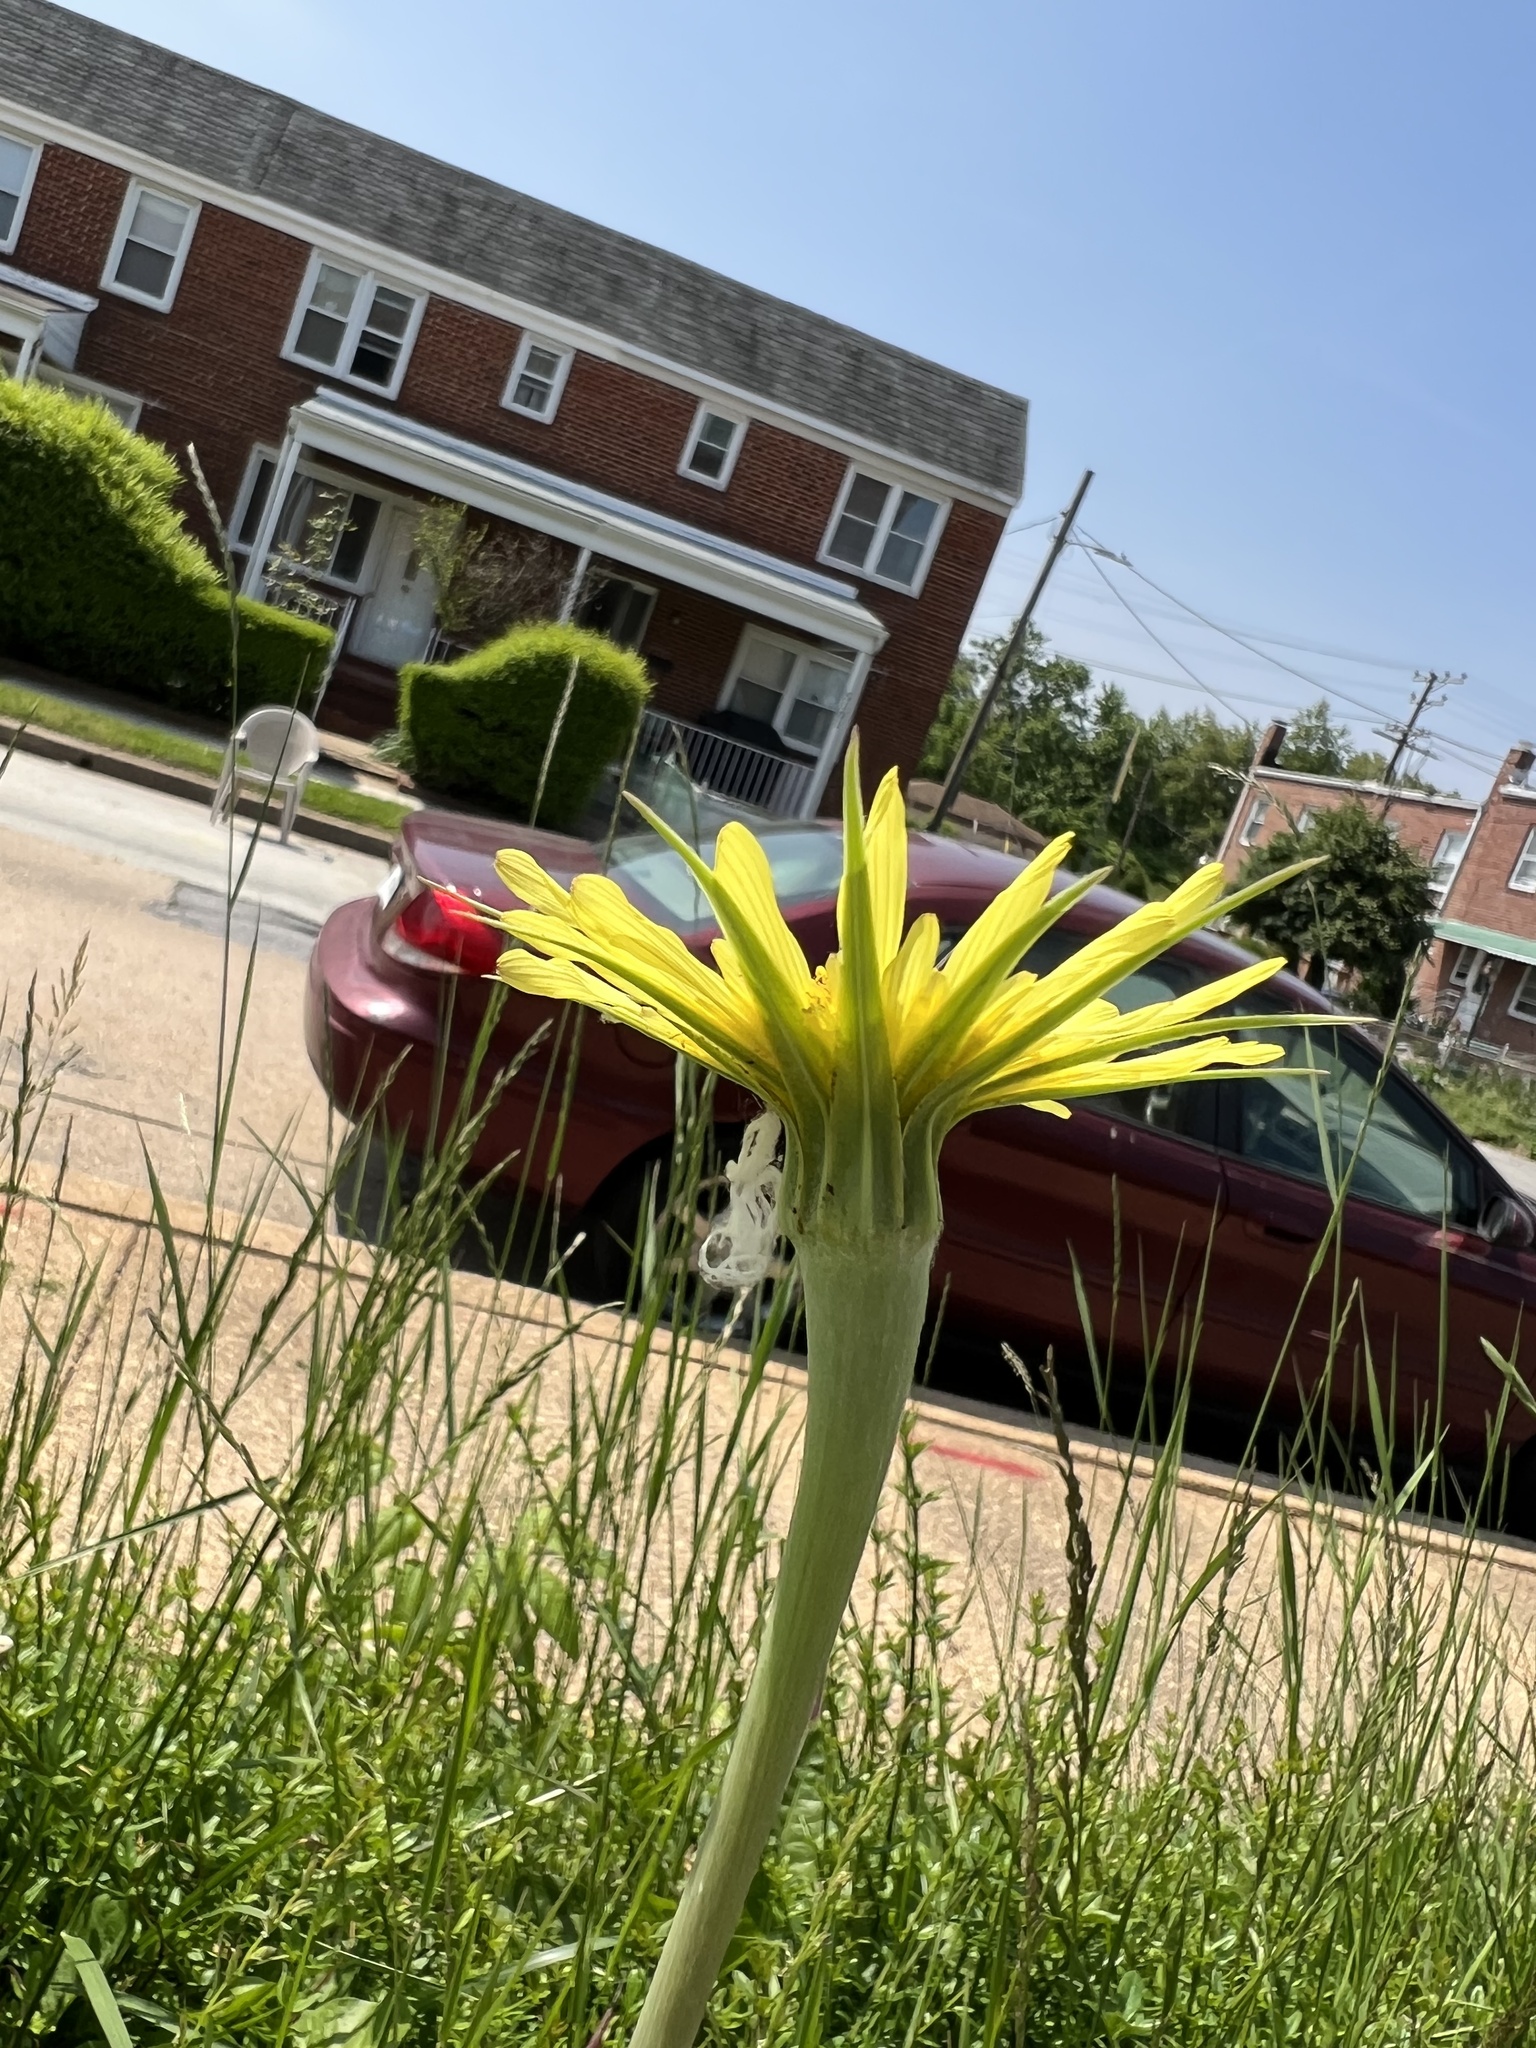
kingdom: Plantae
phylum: Tracheophyta
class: Magnoliopsida
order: Asterales
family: Asteraceae
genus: Tragopogon
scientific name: Tragopogon dubius
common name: Yellow salsify
